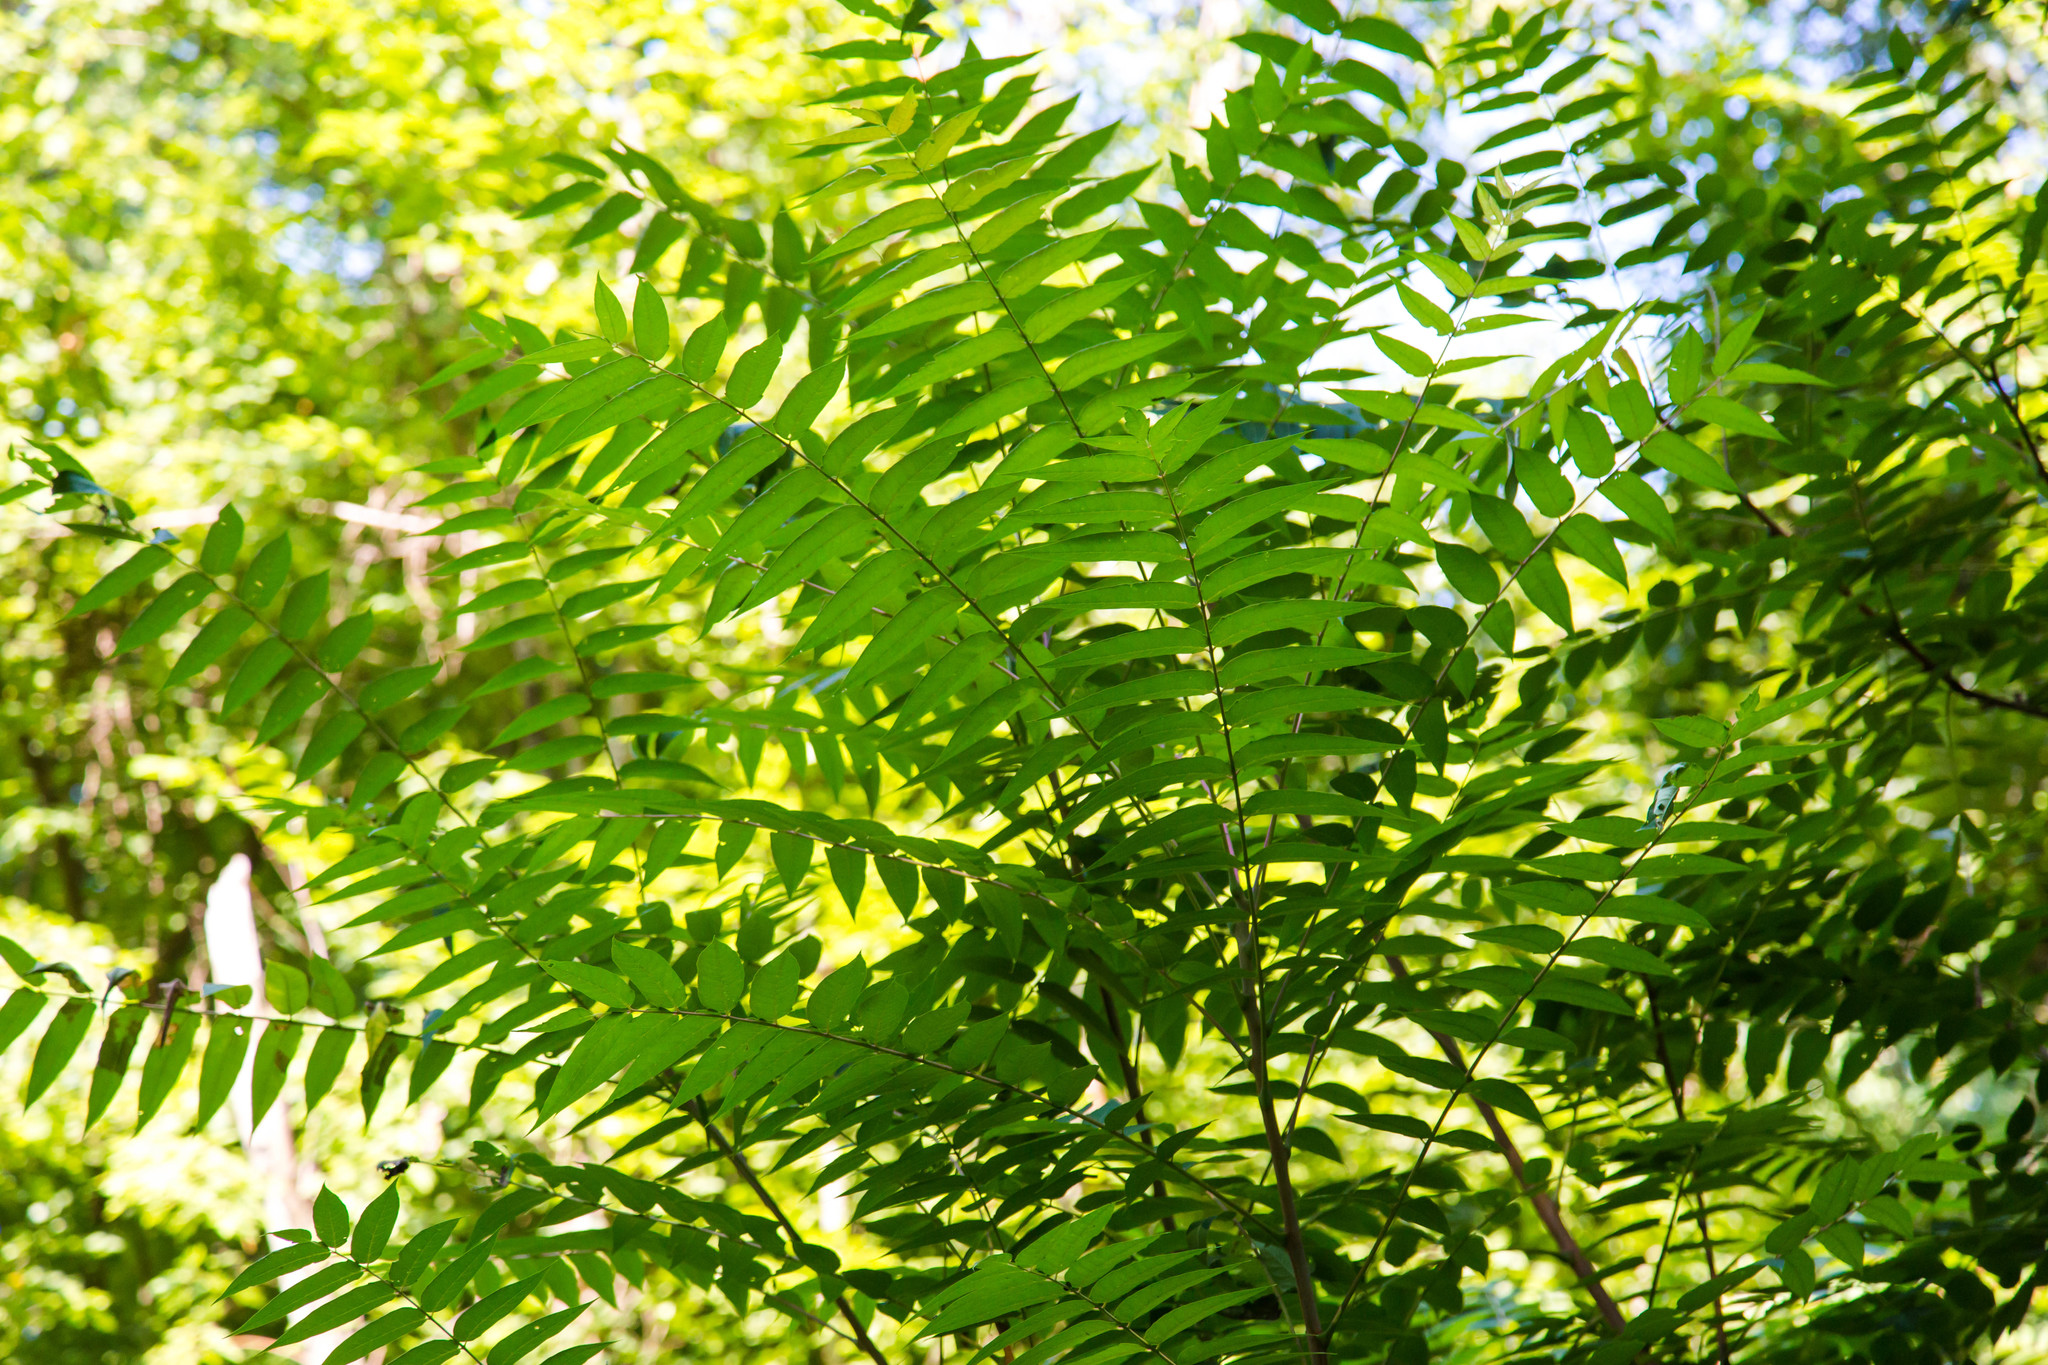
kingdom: Plantae
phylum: Tracheophyta
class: Magnoliopsida
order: Sapindales
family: Simaroubaceae
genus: Ailanthus
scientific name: Ailanthus altissima
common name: Tree-of-heaven
